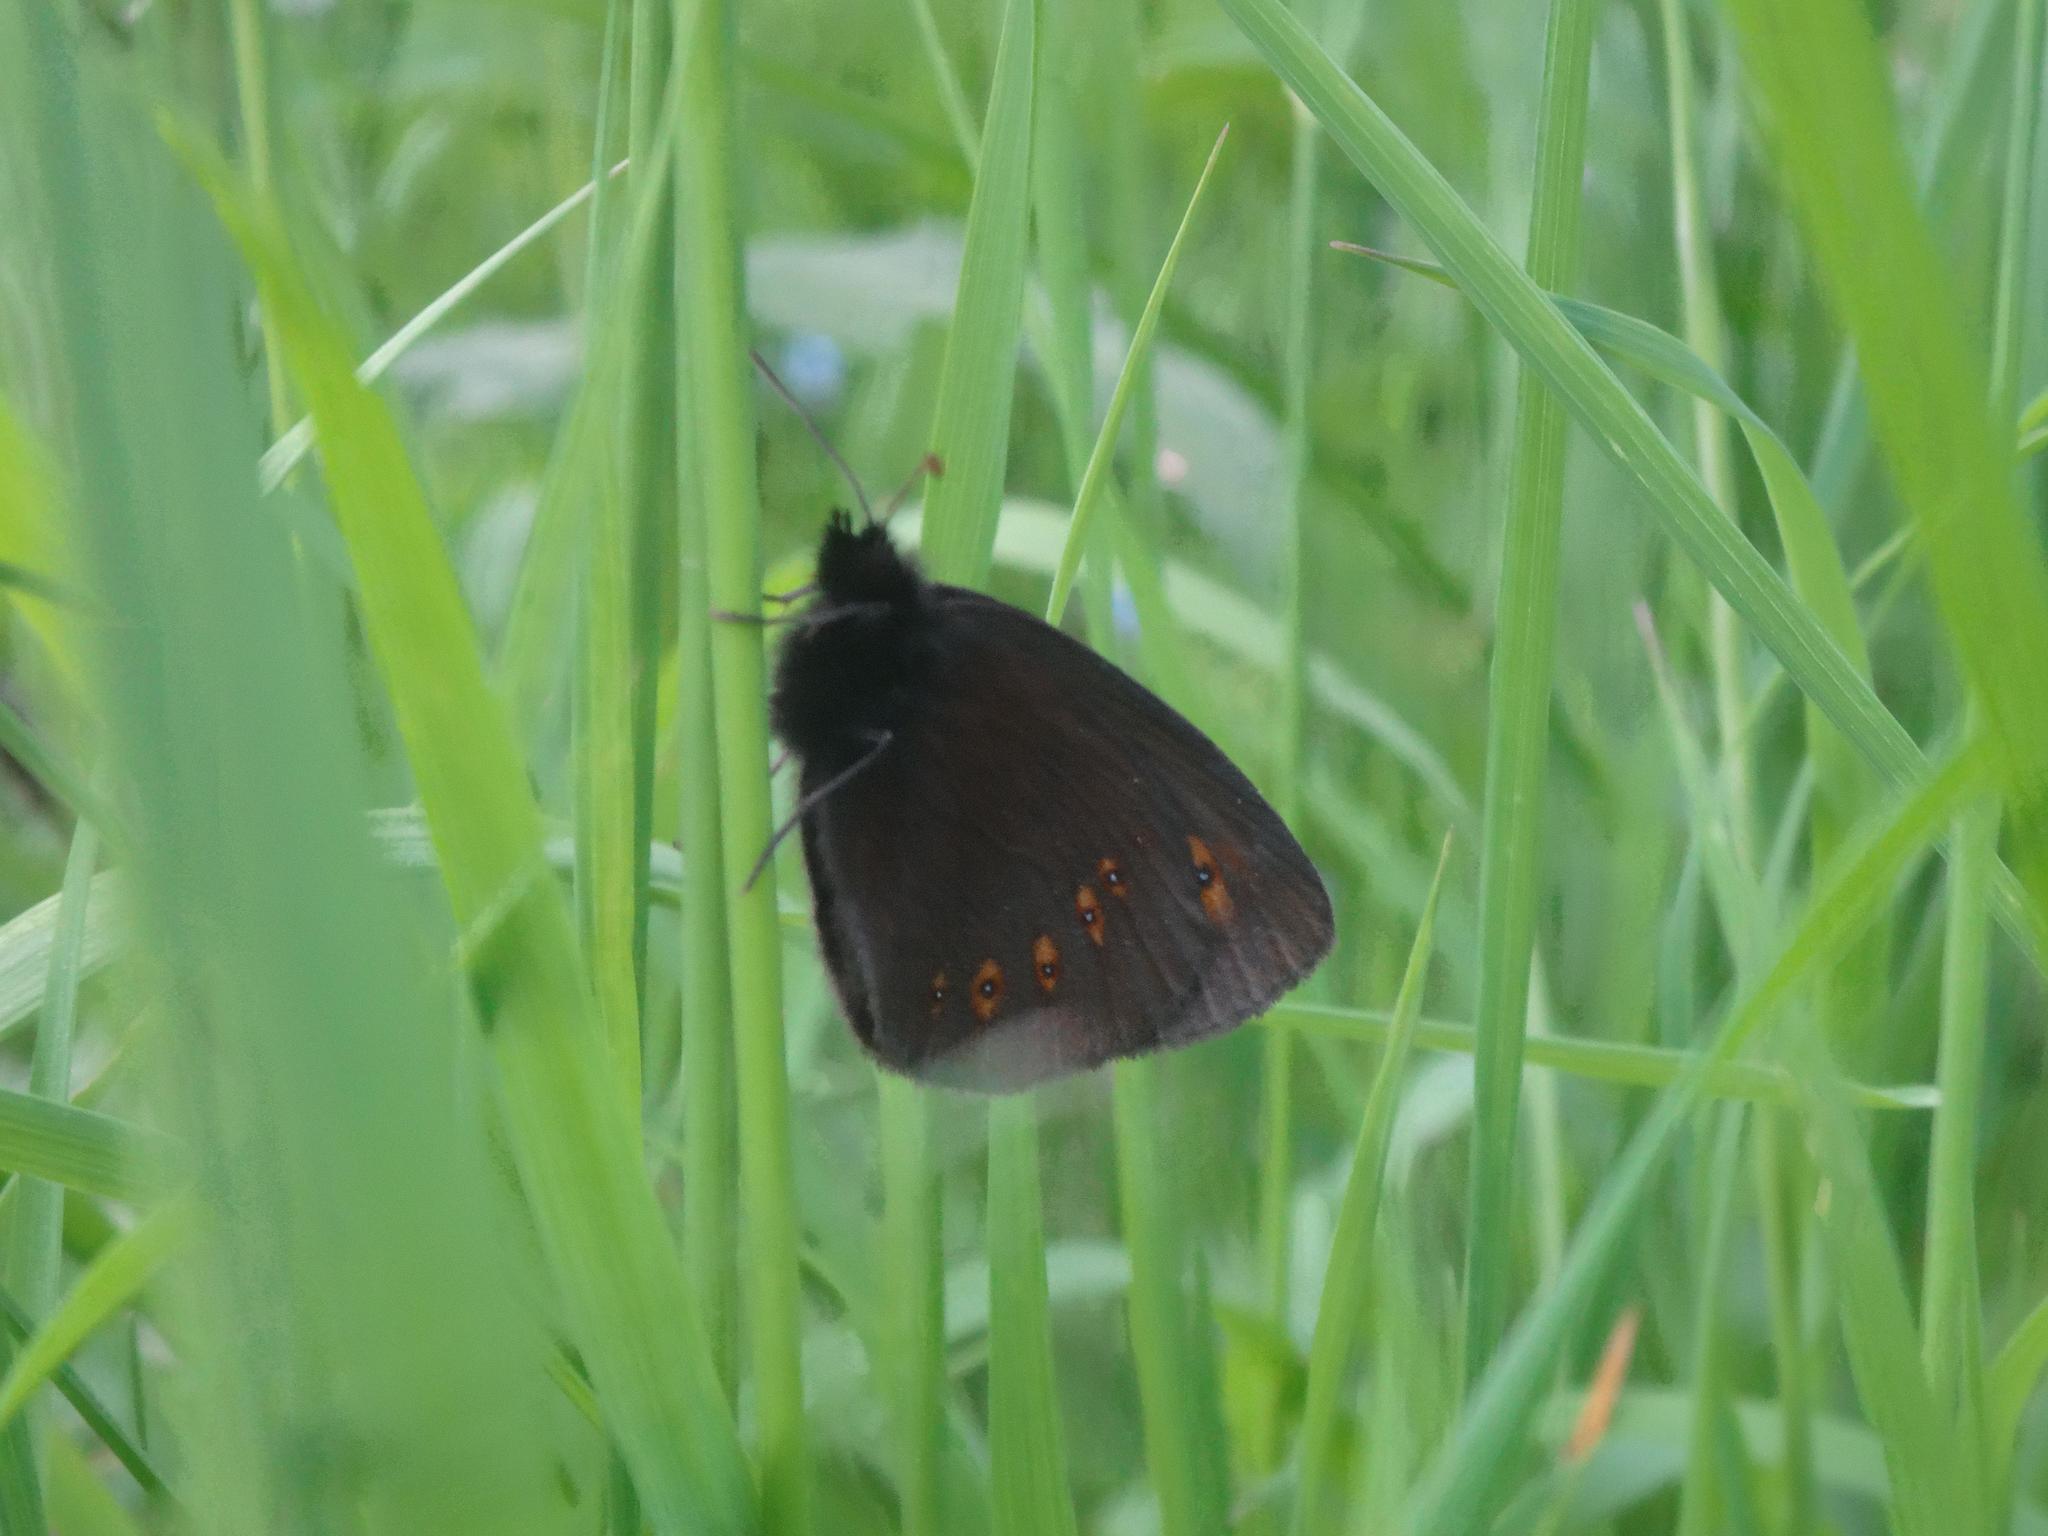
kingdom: Animalia
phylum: Arthropoda
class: Insecta
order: Lepidoptera
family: Nymphalidae
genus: Erebia
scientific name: Erebia alberganus
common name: Almond-eyed ringlet
